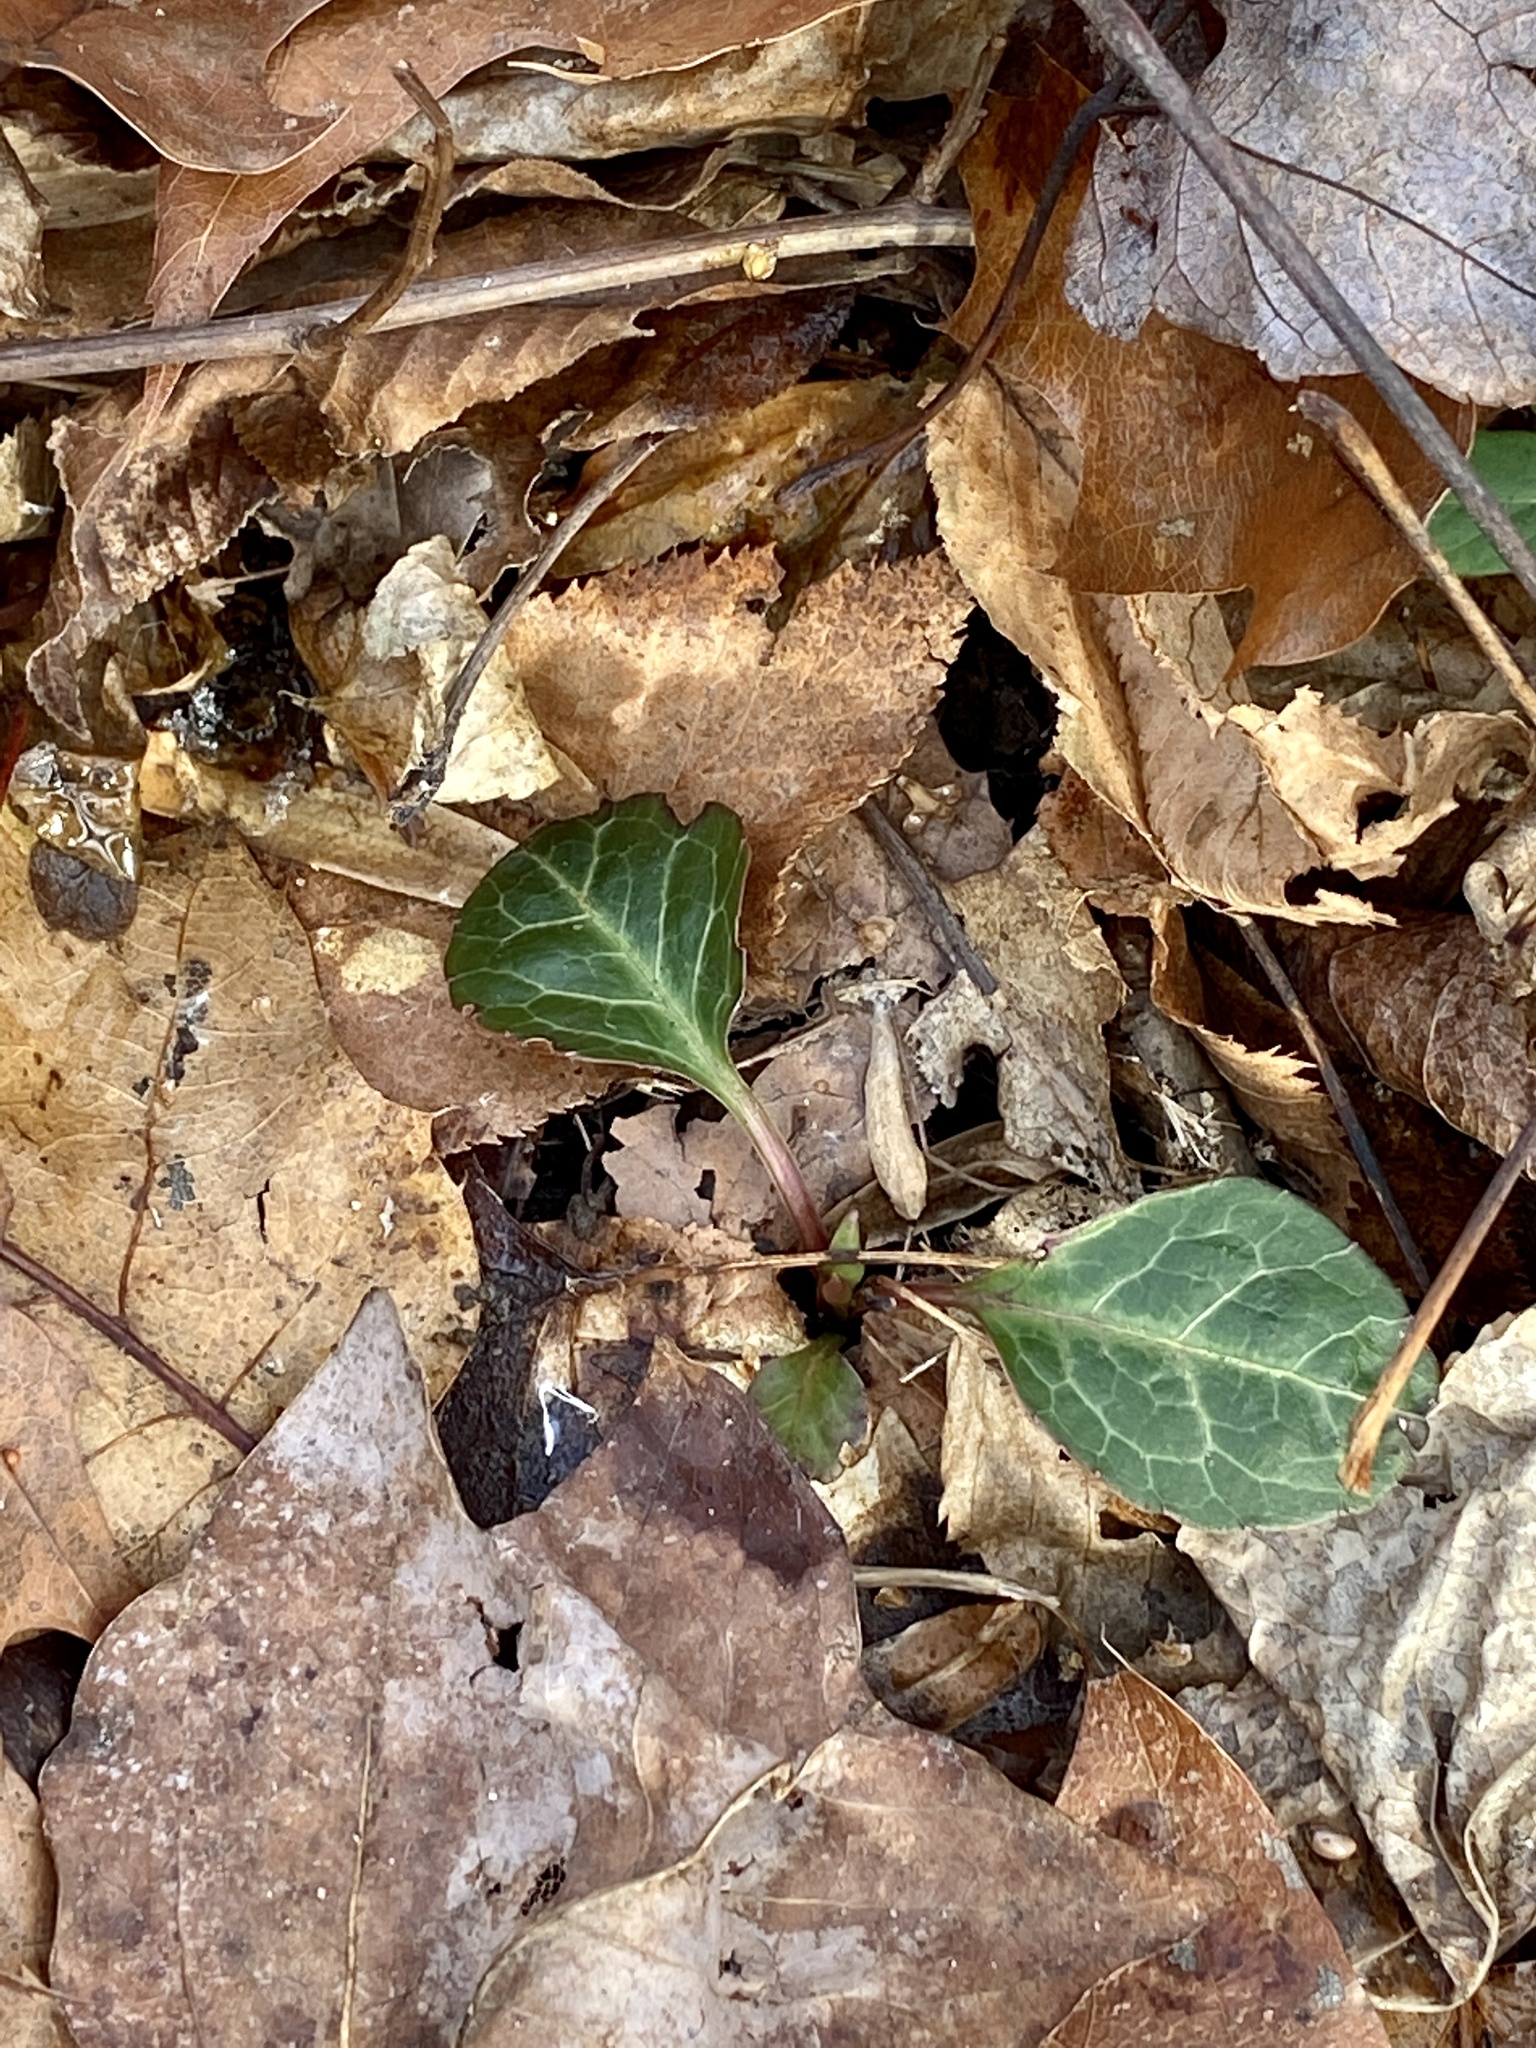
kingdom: Plantae
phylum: Tracheophyta
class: Magnoliopsida
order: Ericales
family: Ericaceae
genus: Pyrola
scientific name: Pyrola americana
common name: American wintergreen
